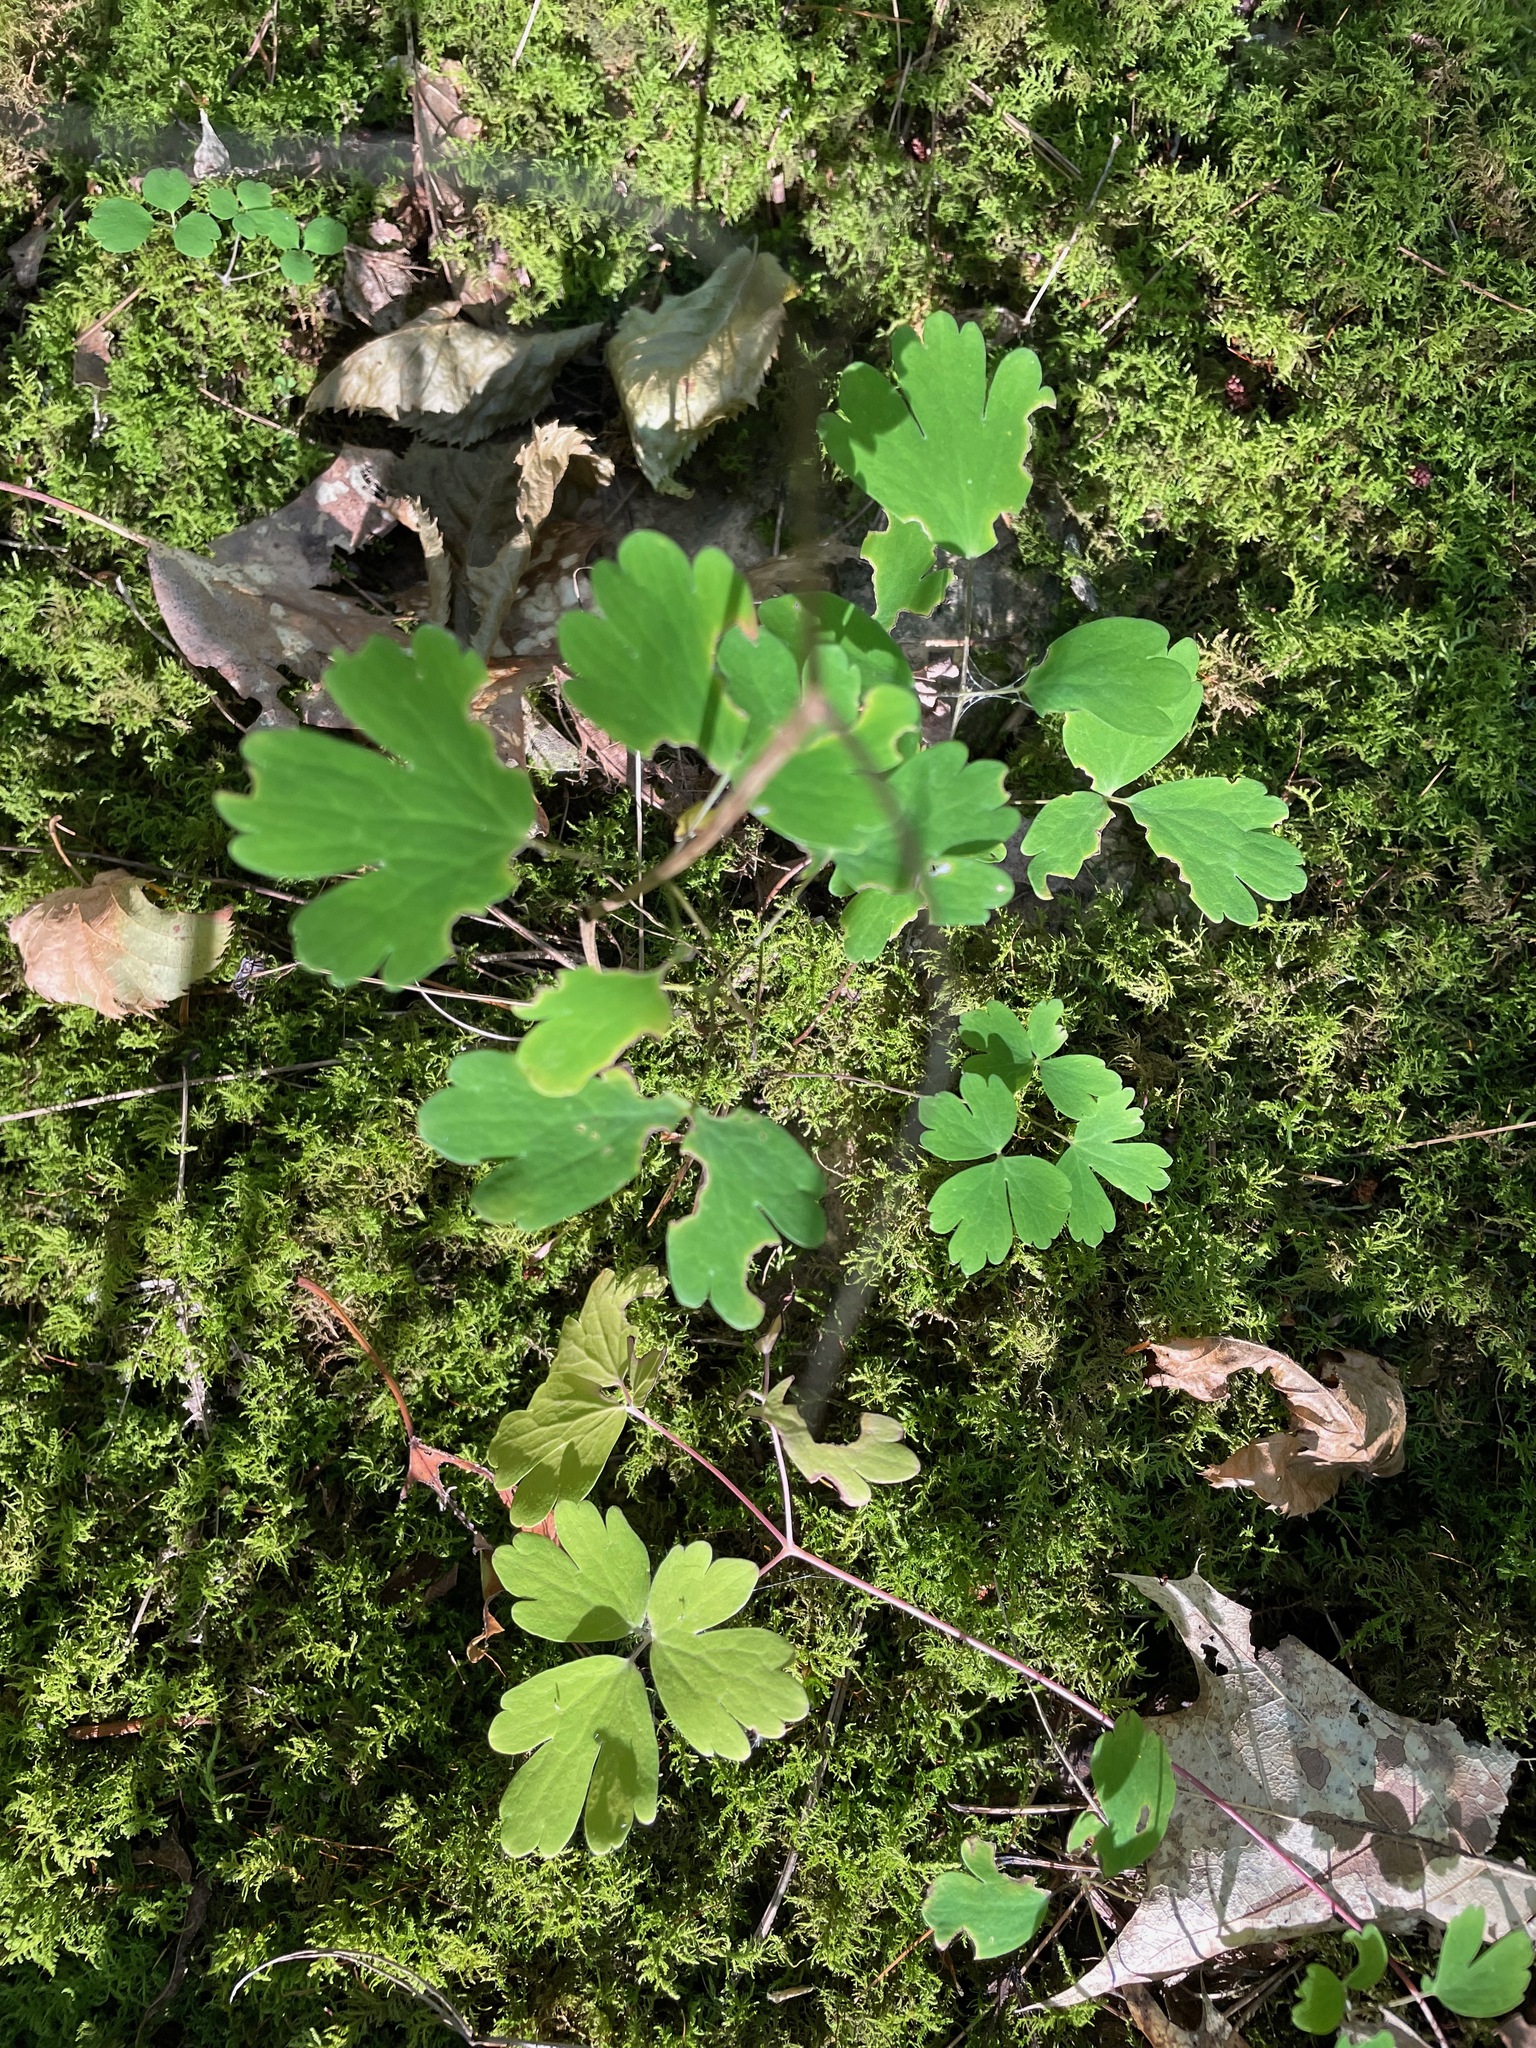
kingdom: Plantae
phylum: Tracheophyta
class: Magnoliopsida
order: Ranunculales
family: Ranunculaceae
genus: Aquilegia
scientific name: Aquilegia canadensis
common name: American columbine
